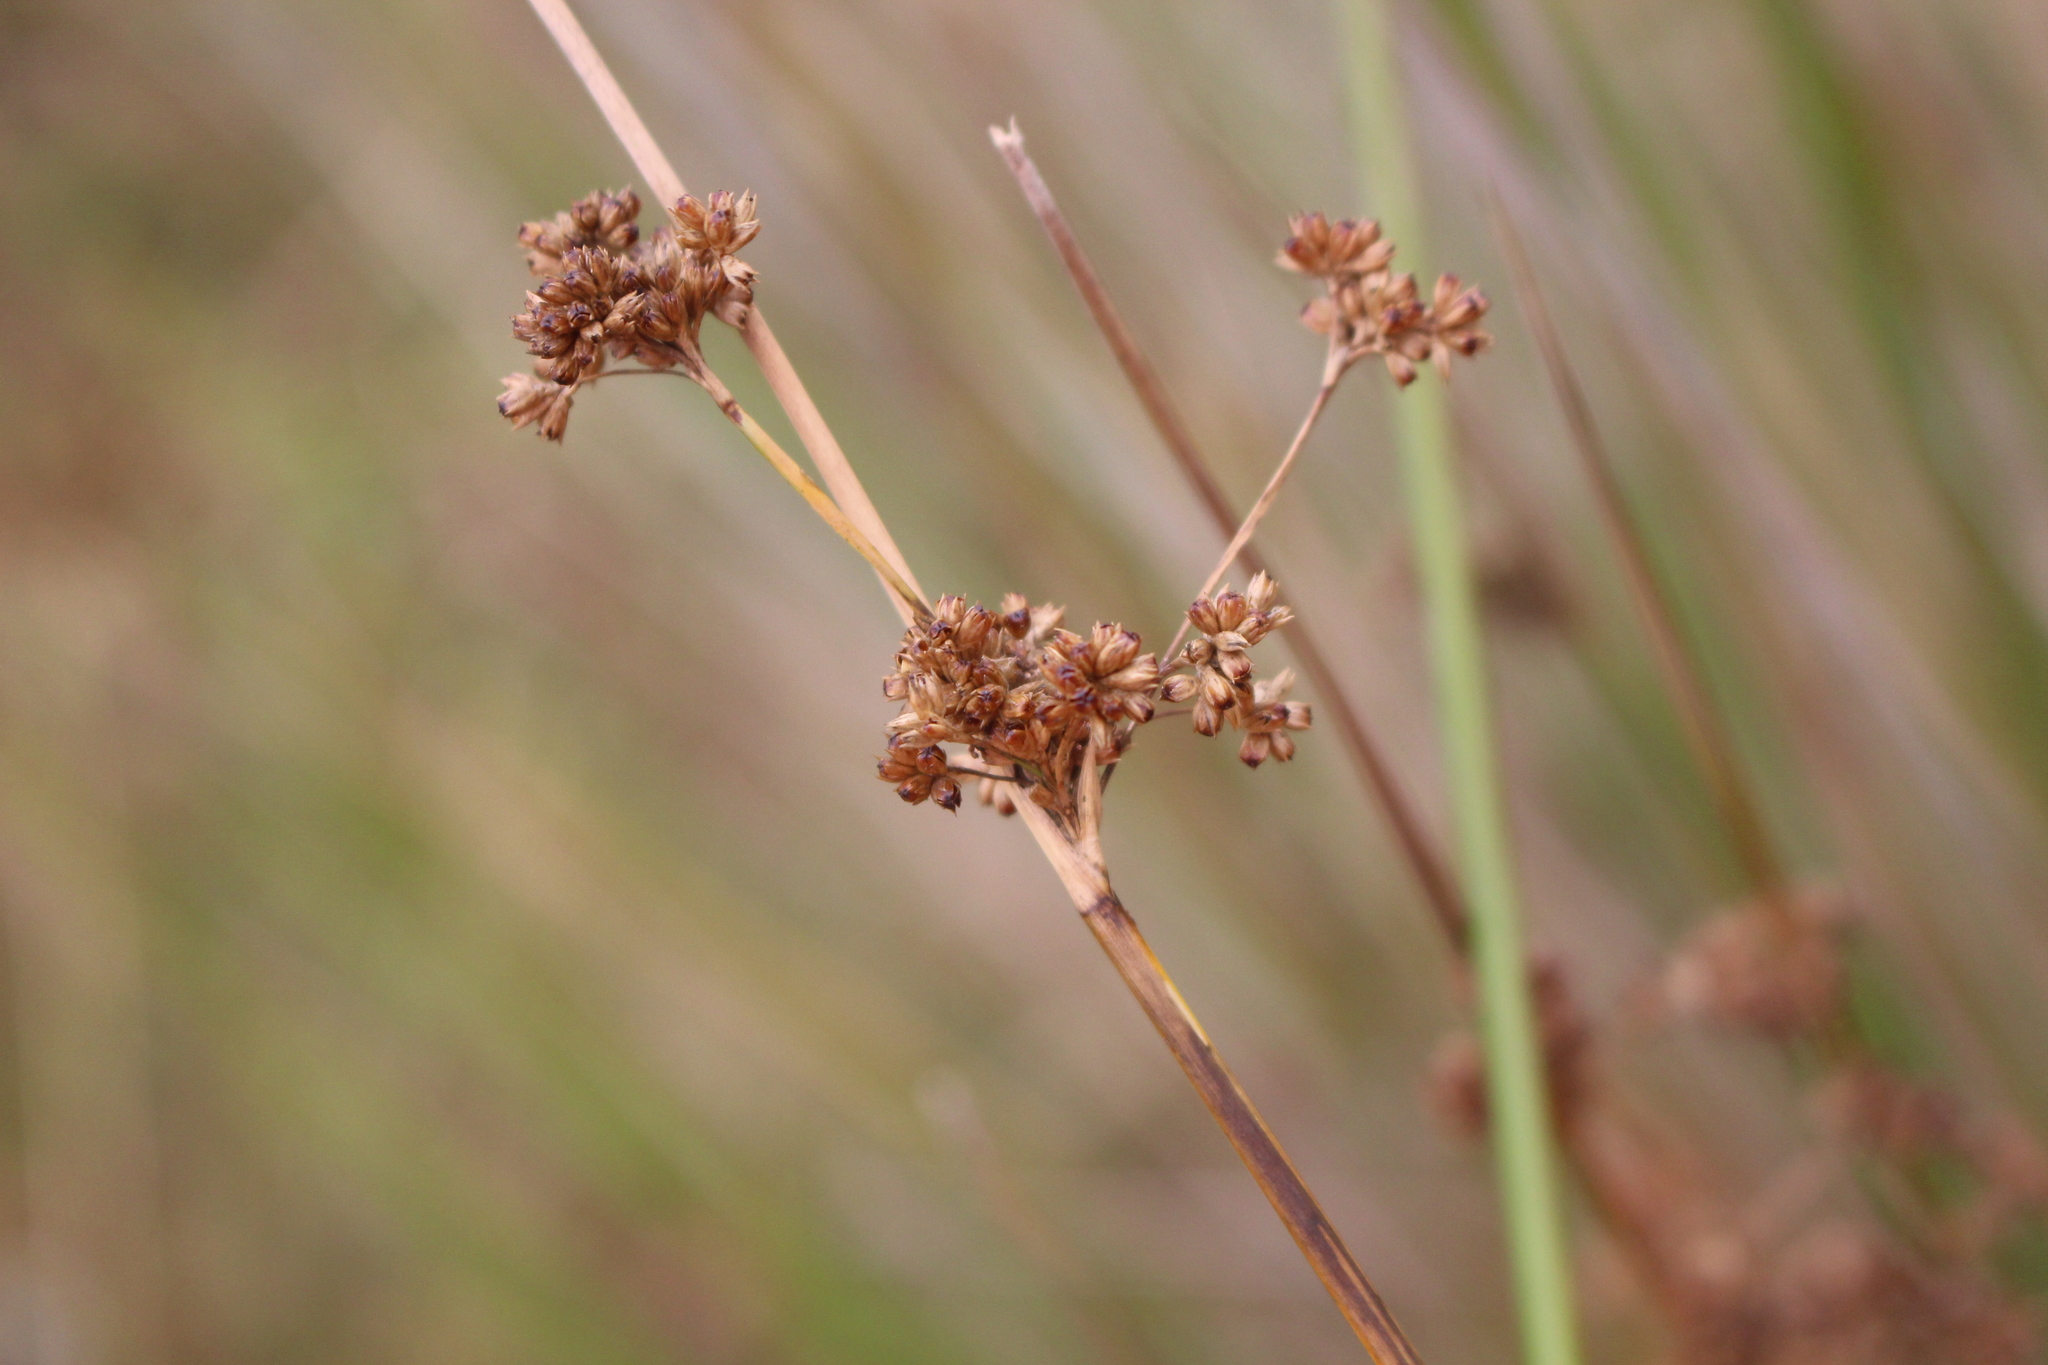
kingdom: Plantae
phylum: Tracheophyta
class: Liliopsida
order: Poales
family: Juncaceae
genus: Juncus
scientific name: Juncus edgariae
